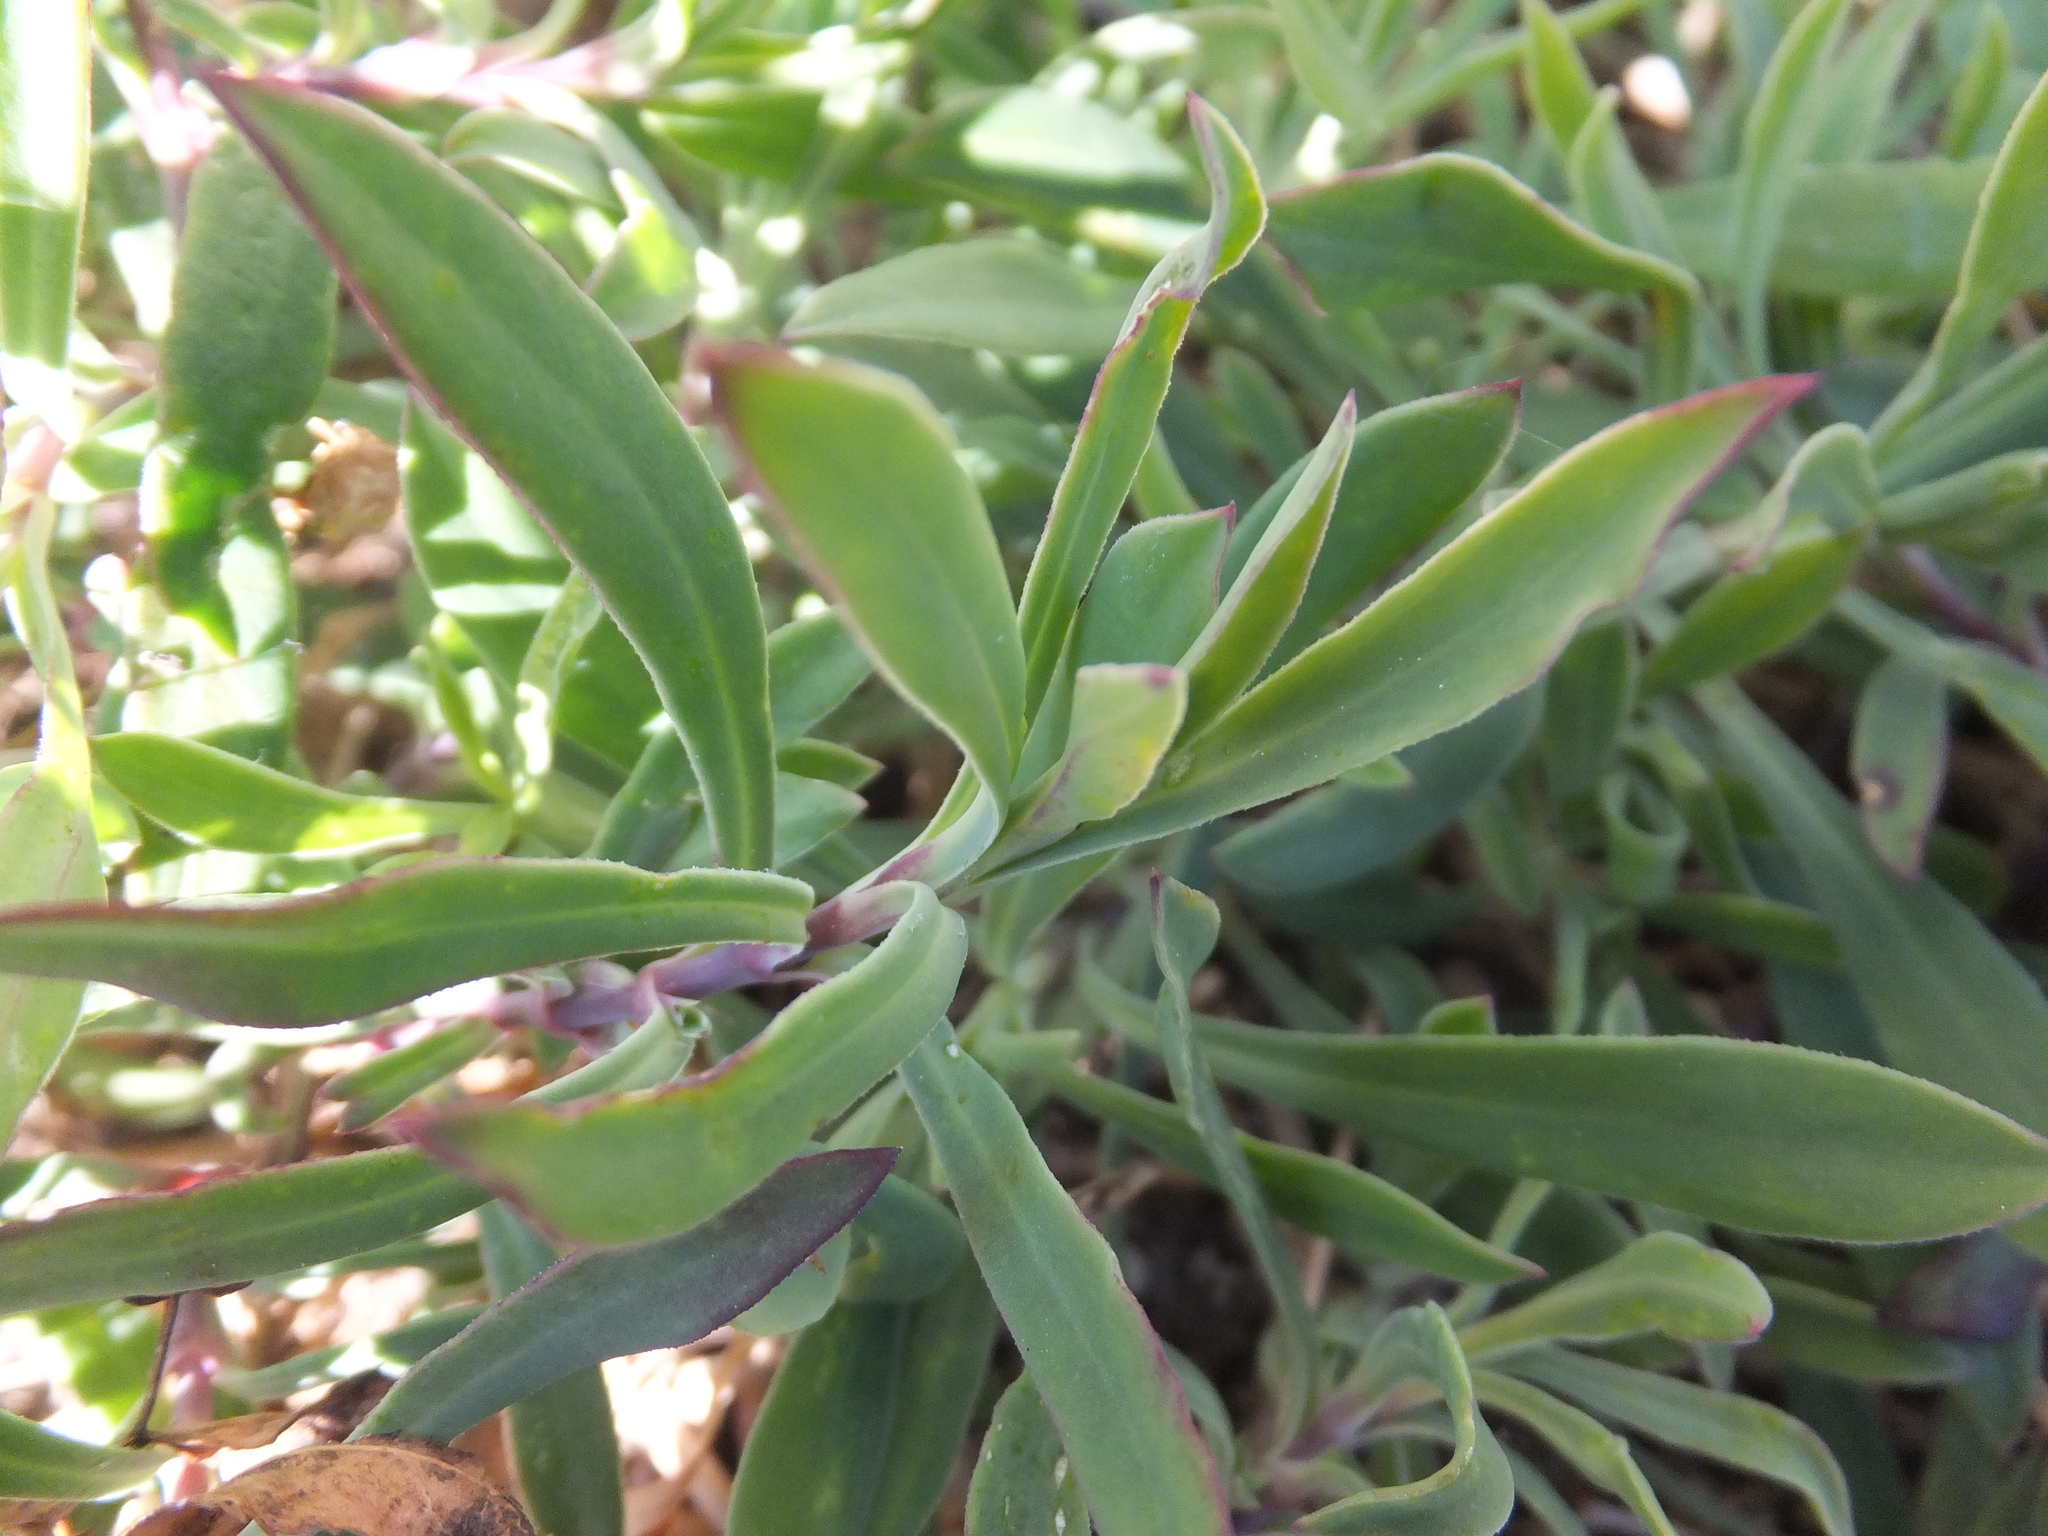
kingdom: Plantae
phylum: Tracheophyta
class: Magnoliopsida
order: Caryophyllales
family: Caryophyllaceae
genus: Silene
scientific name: Silene vulgaris
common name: Bladder campion
